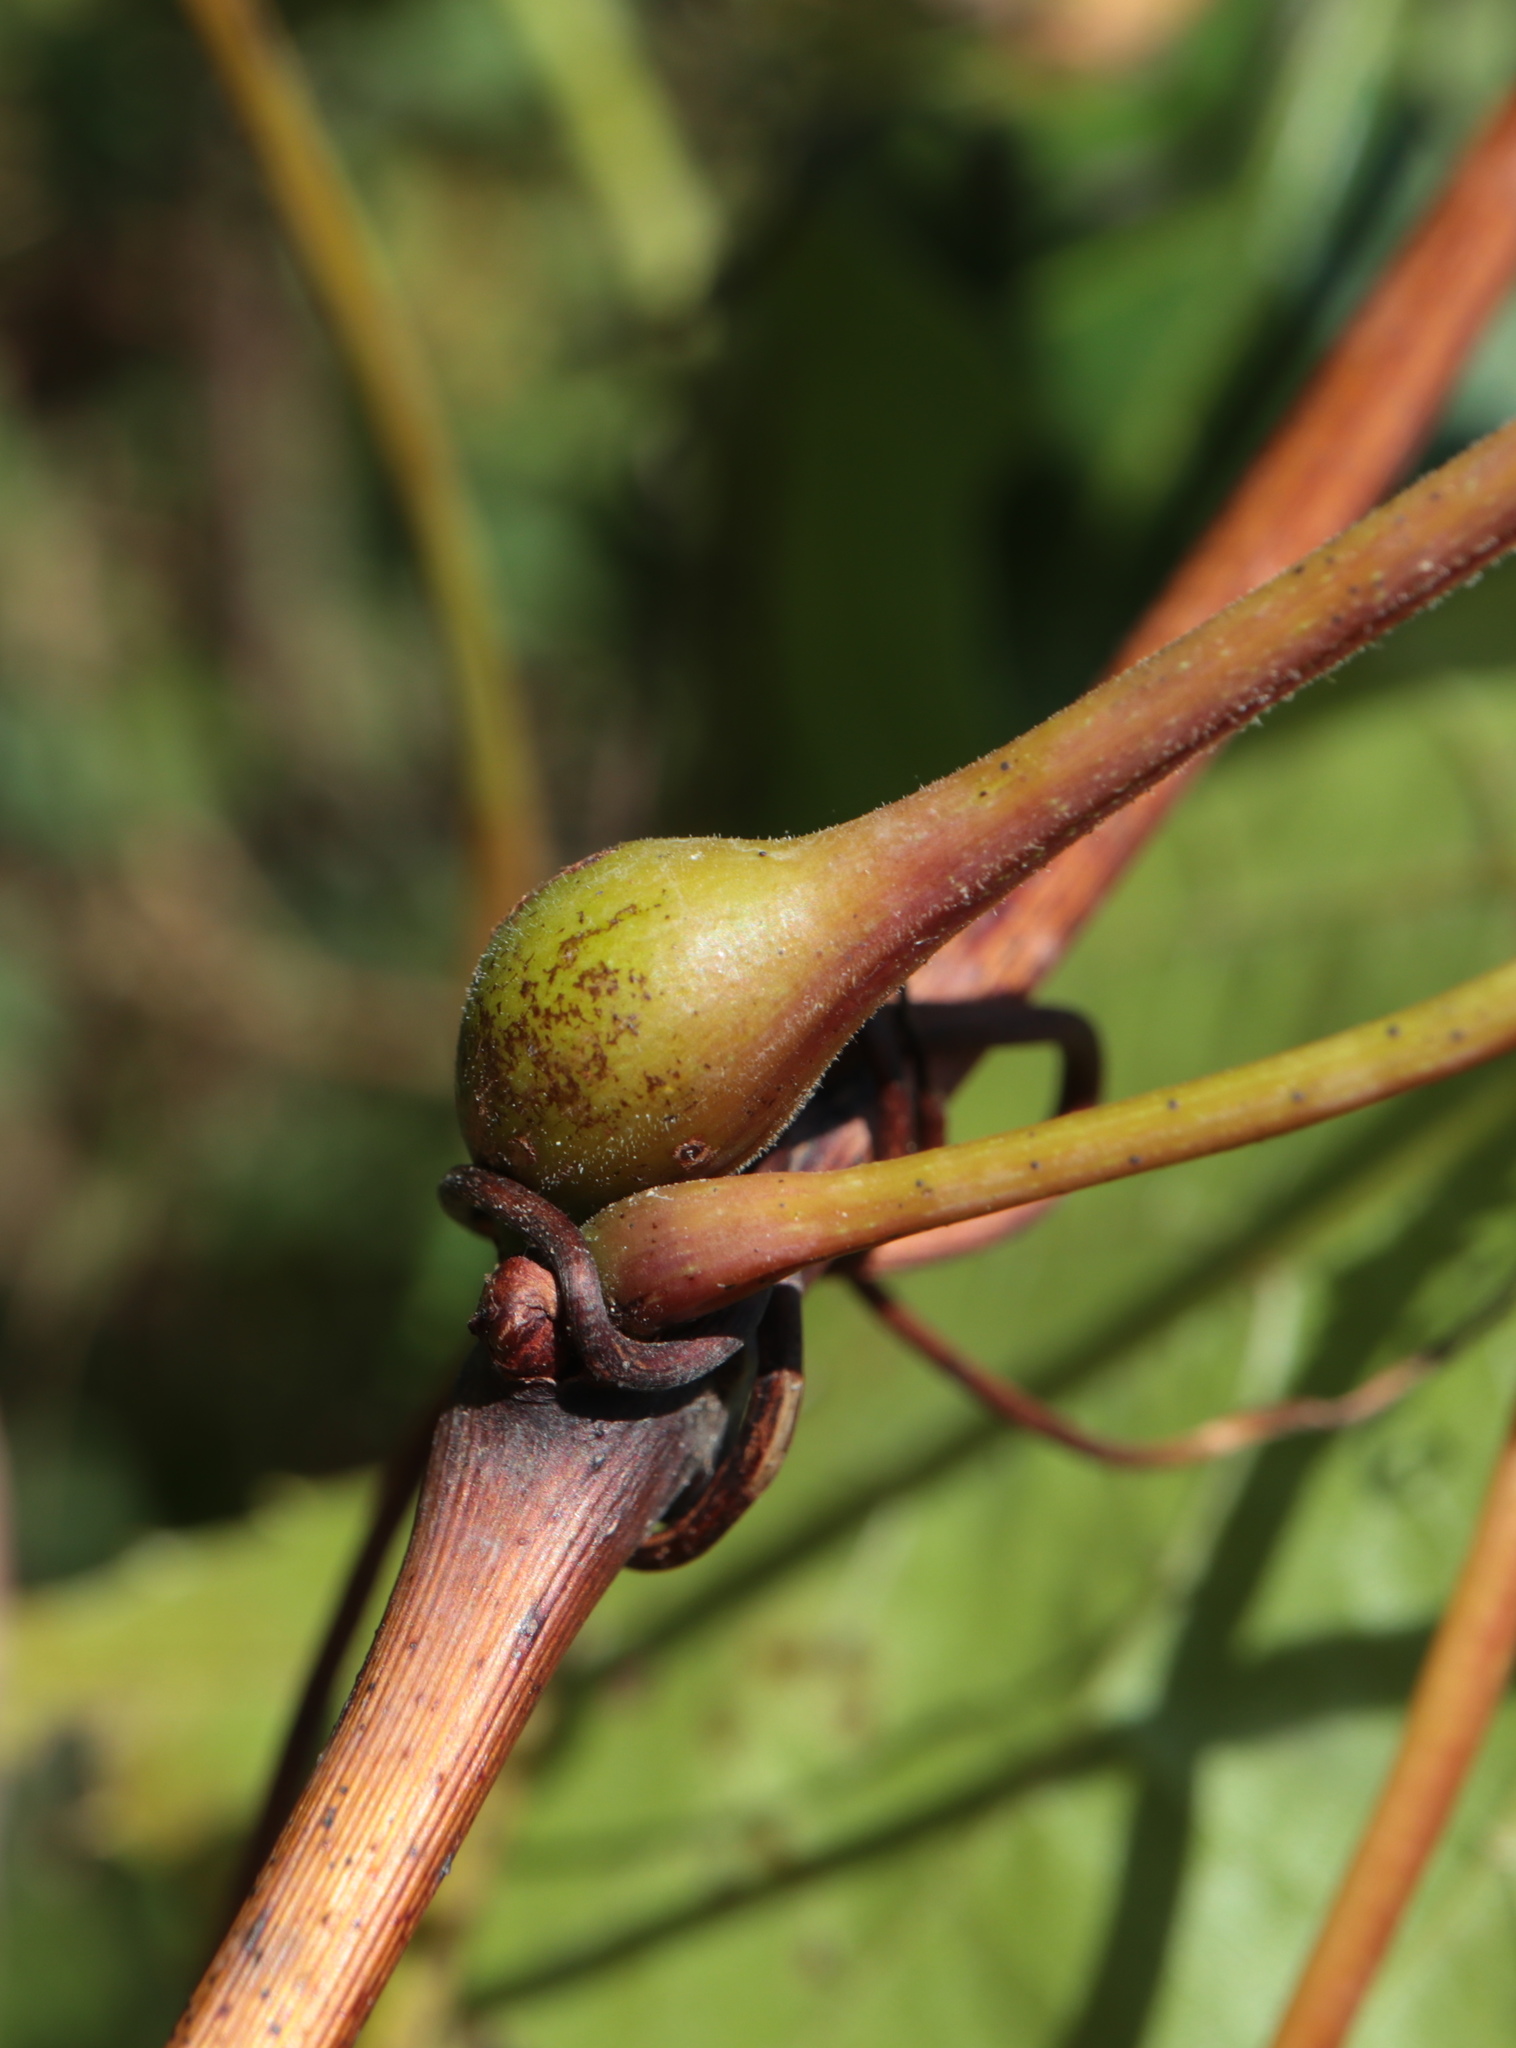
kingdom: Animalia
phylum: Arthropoda
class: Insecta
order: Diptera
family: Cecidomyiidae
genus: Neolasioptera
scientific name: Neolasioptera vitinea
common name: Grape leaf petiole gall
